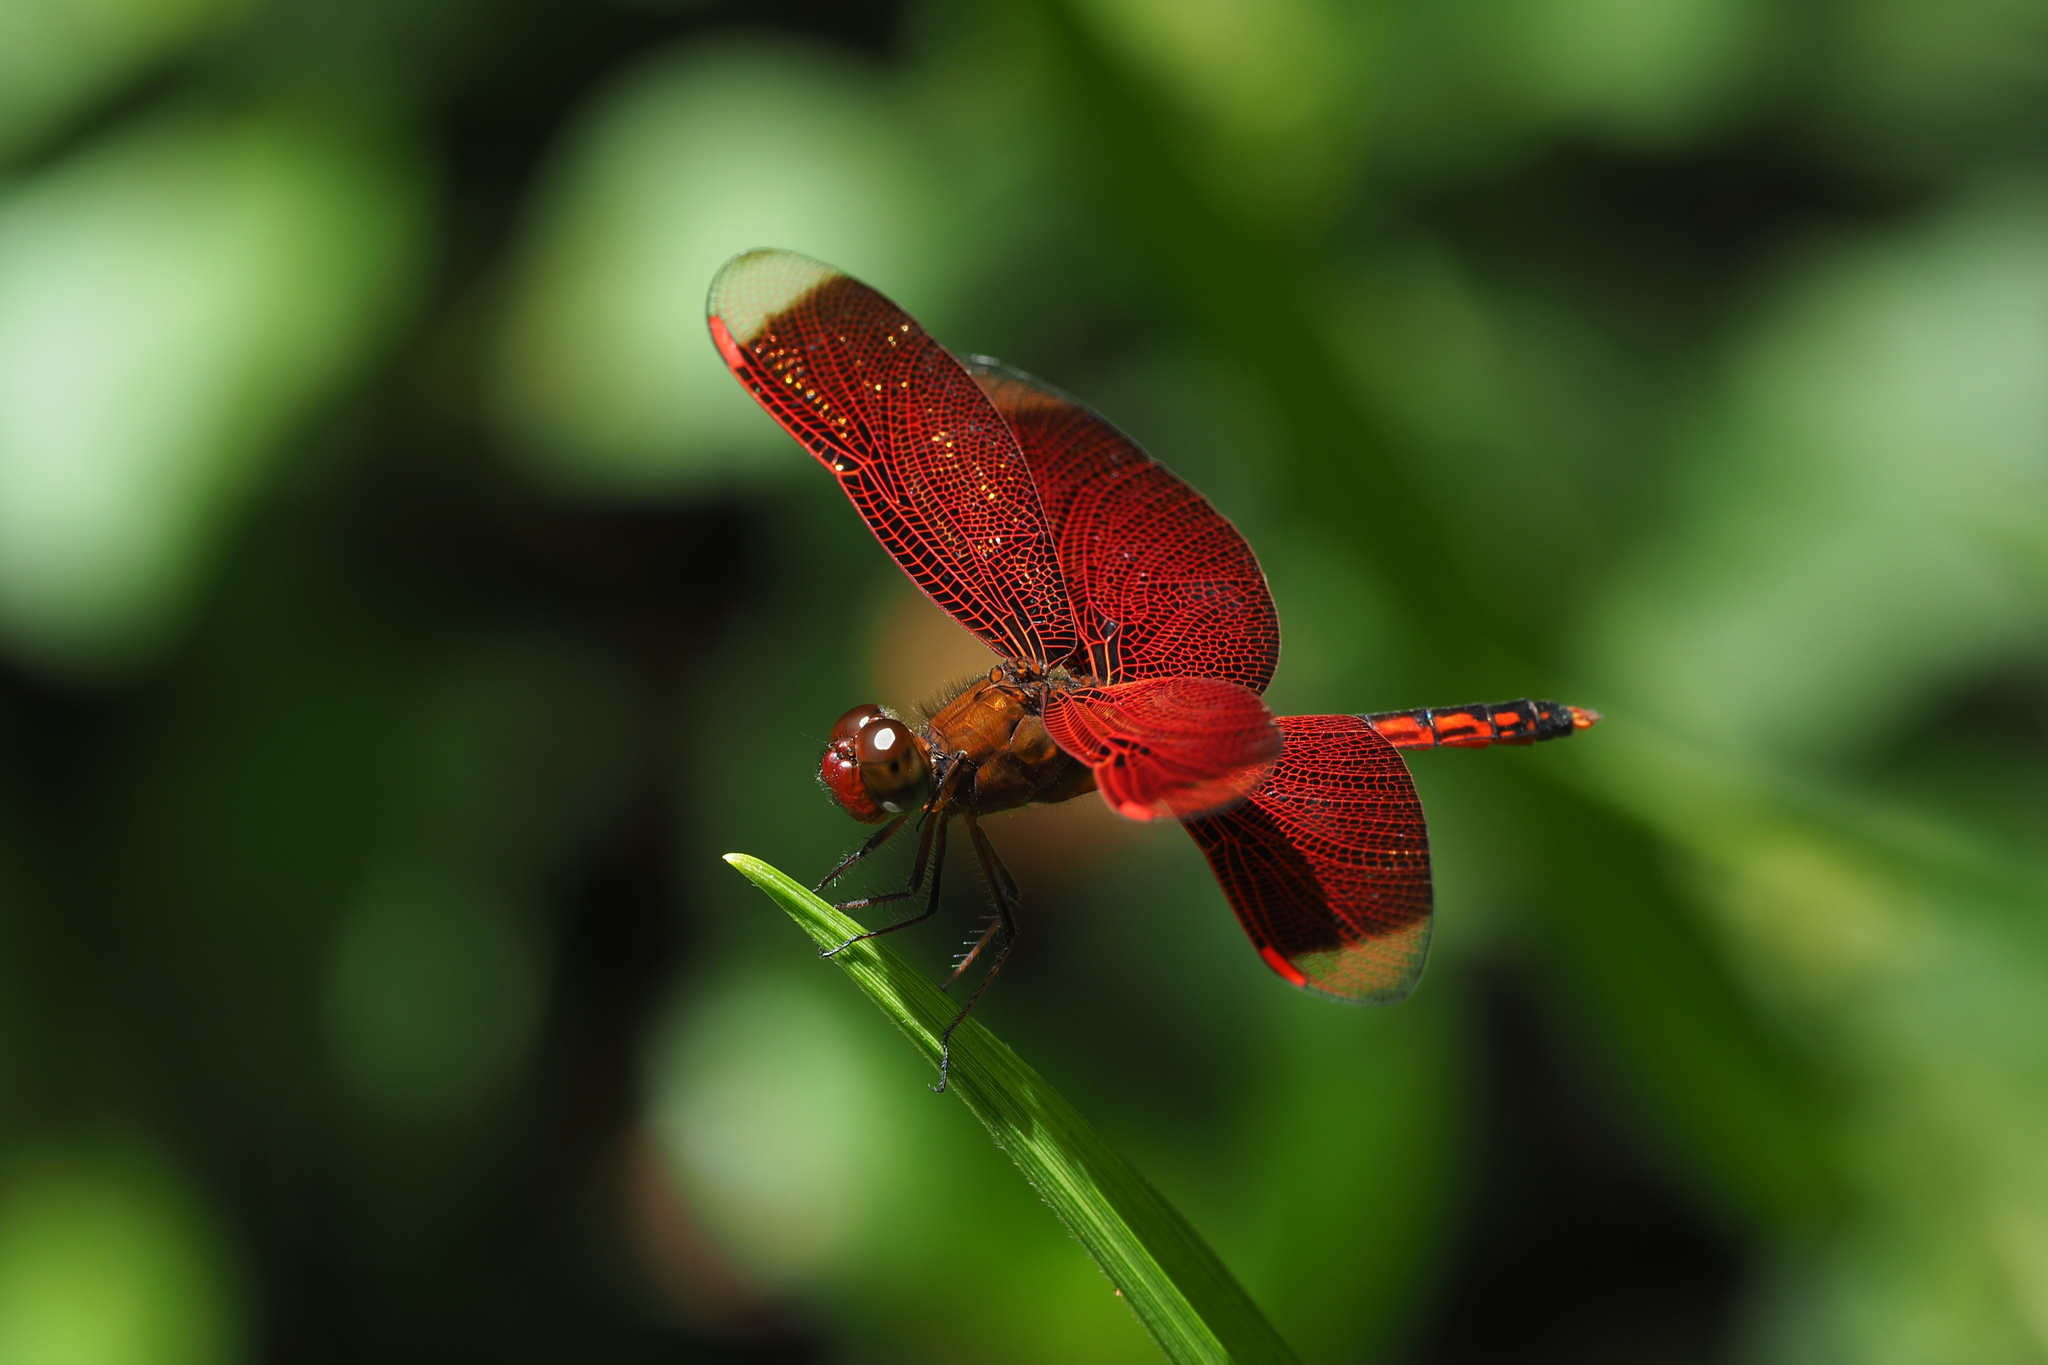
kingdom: Animalia
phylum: Arthropoda
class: Insecta
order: Odonata
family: Libellulidae
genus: Neurothemis
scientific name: Neurothemis taiwanensis
